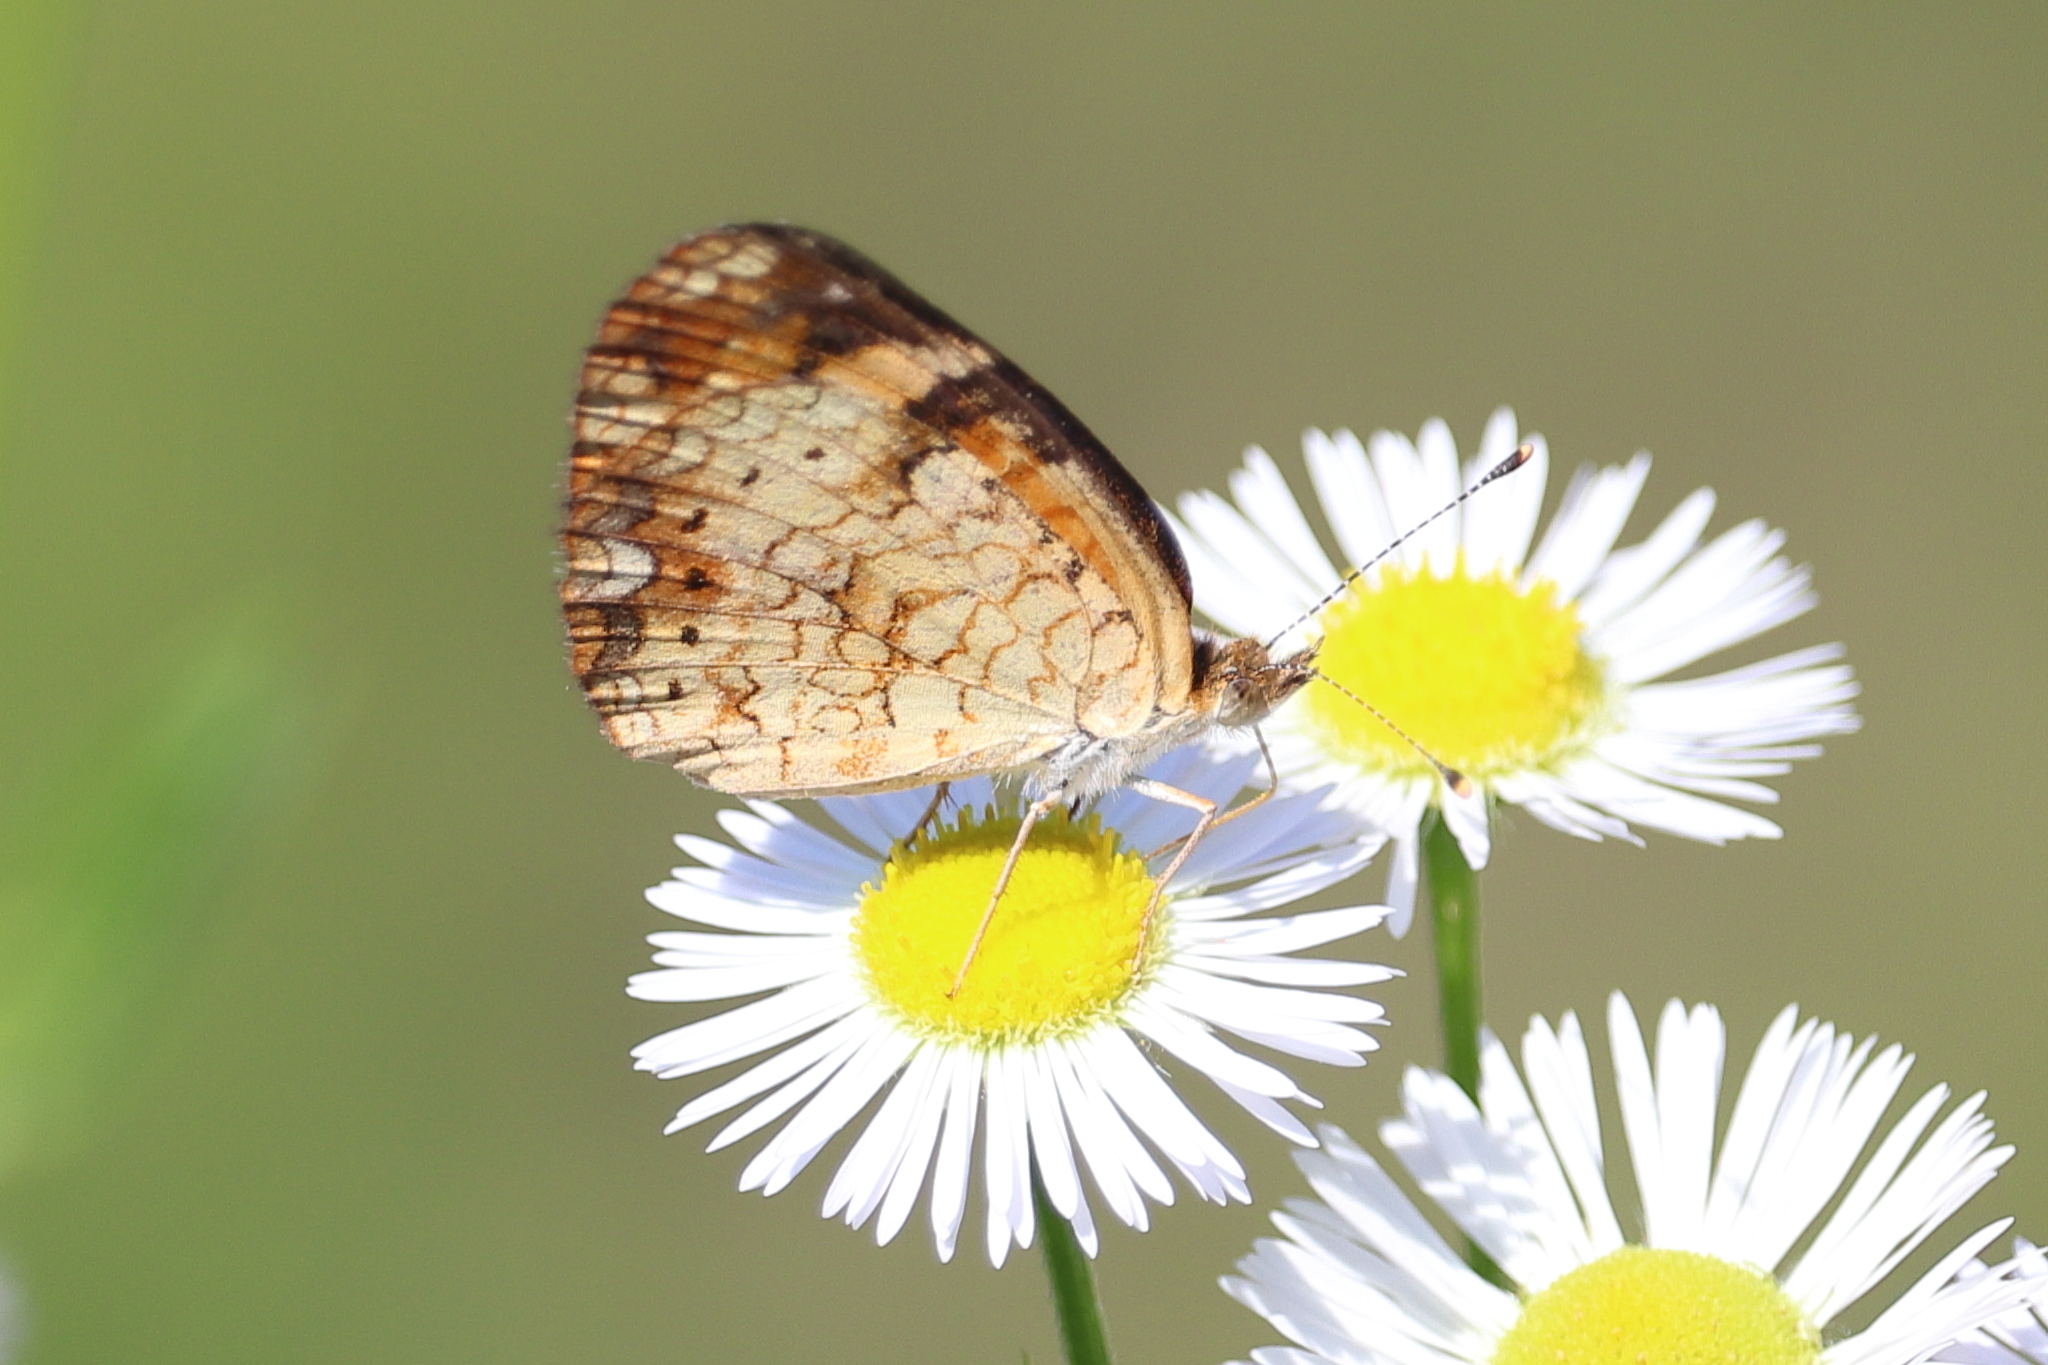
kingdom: Animalia
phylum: Arthropoda
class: Insecta
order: Lepidoptera
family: Nymphalidae
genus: Phyciodes
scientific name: Phyciodes tharos
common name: Pearl crescent
